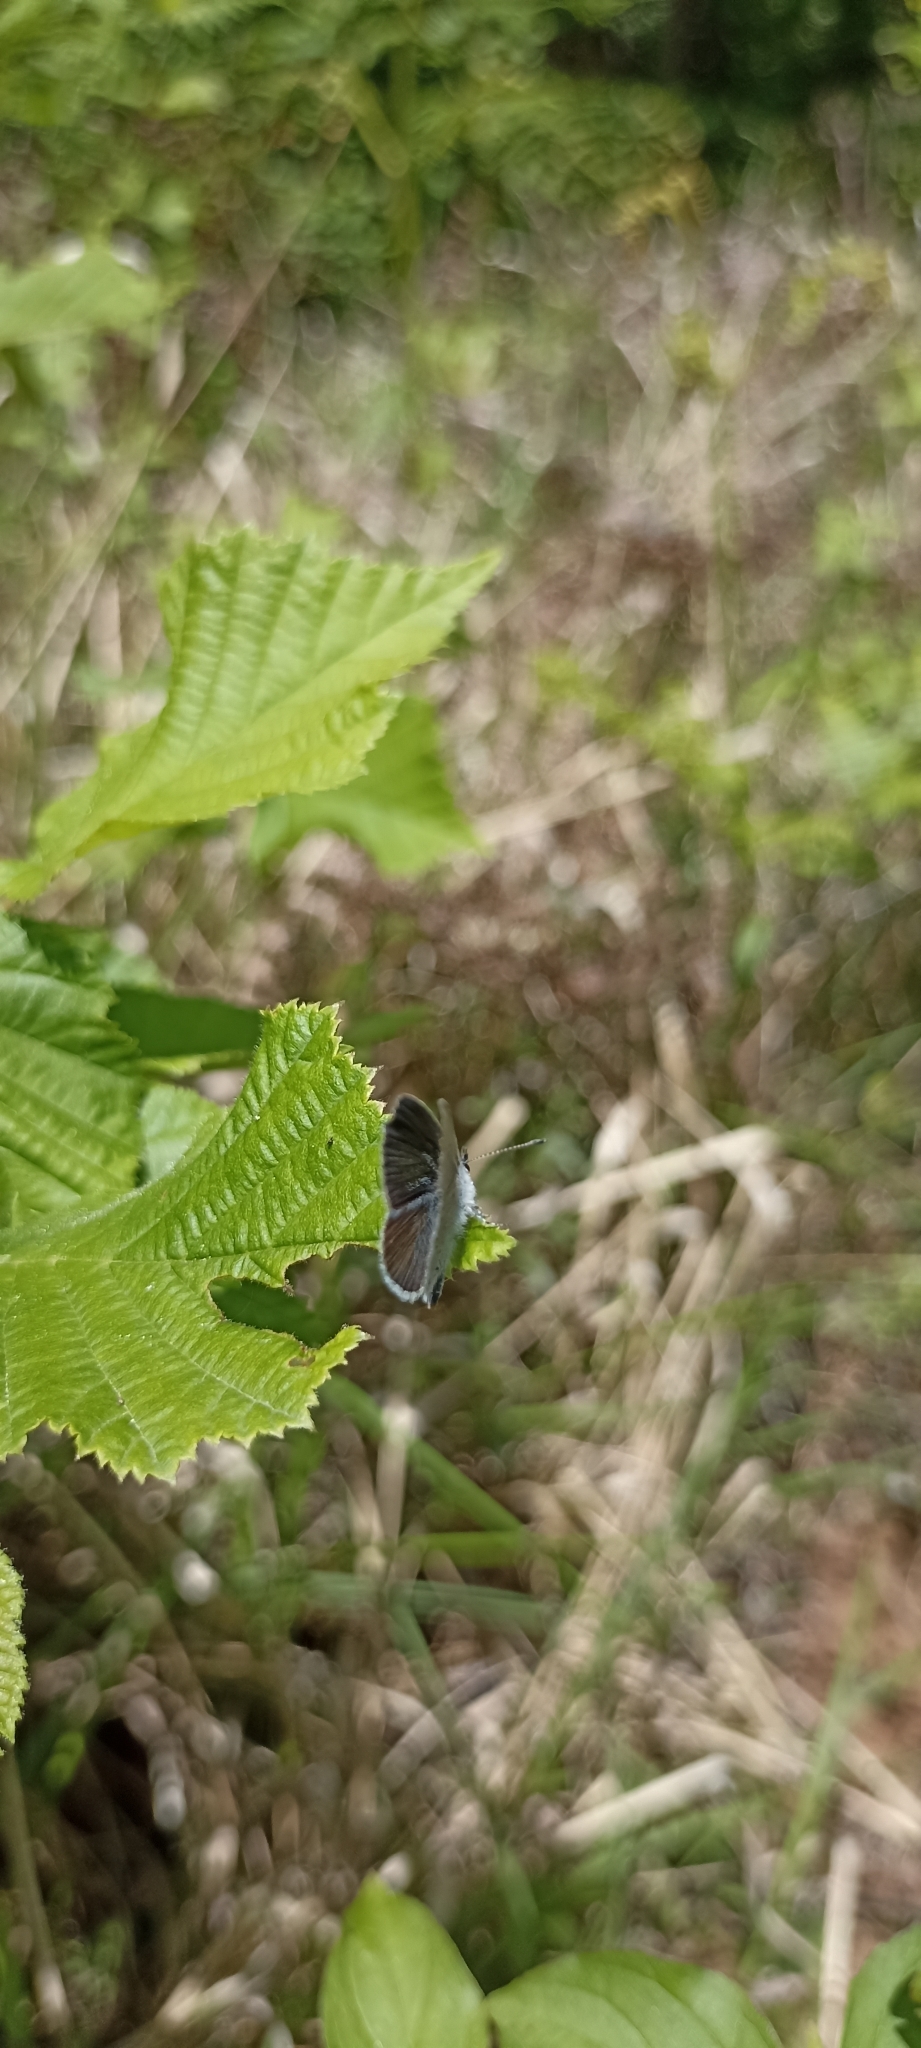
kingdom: Animalia
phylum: Arthropoda
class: Insecta
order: Lepidoptera
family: Lycaenidae
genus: Cupido
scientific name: Cupido minimus
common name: Small blue
